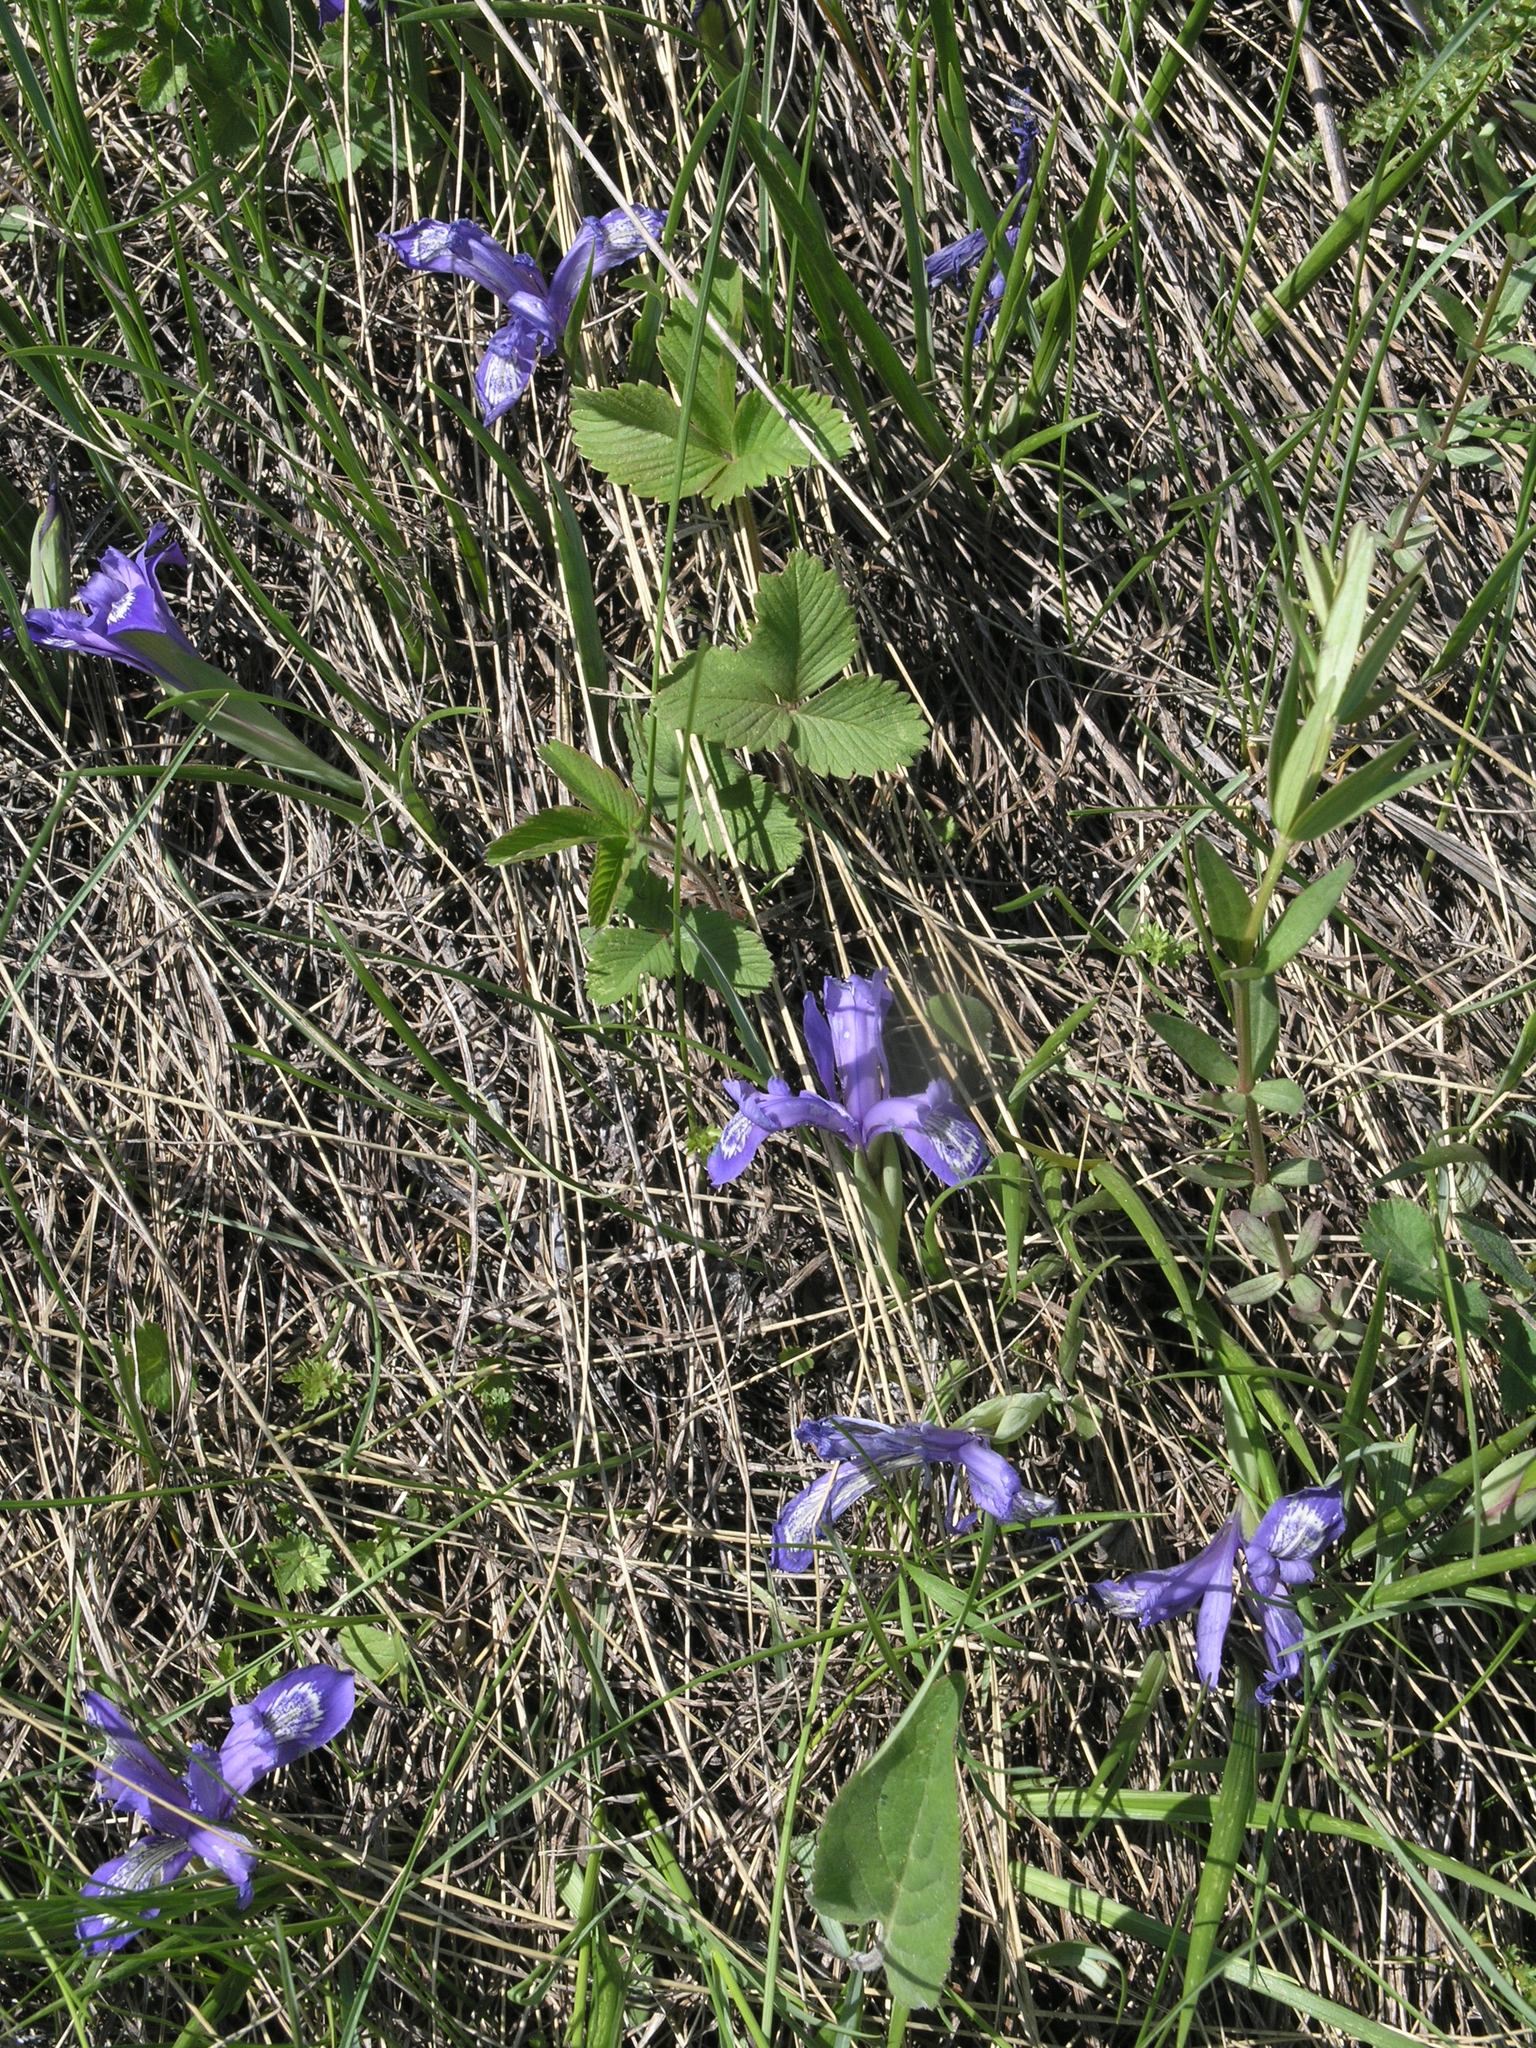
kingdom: Plantae
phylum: Tracheophyta
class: Liliopsida
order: Asparagales
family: Iridaceae
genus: Iris
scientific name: Iris ruthenica
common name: Purple-bract iris
